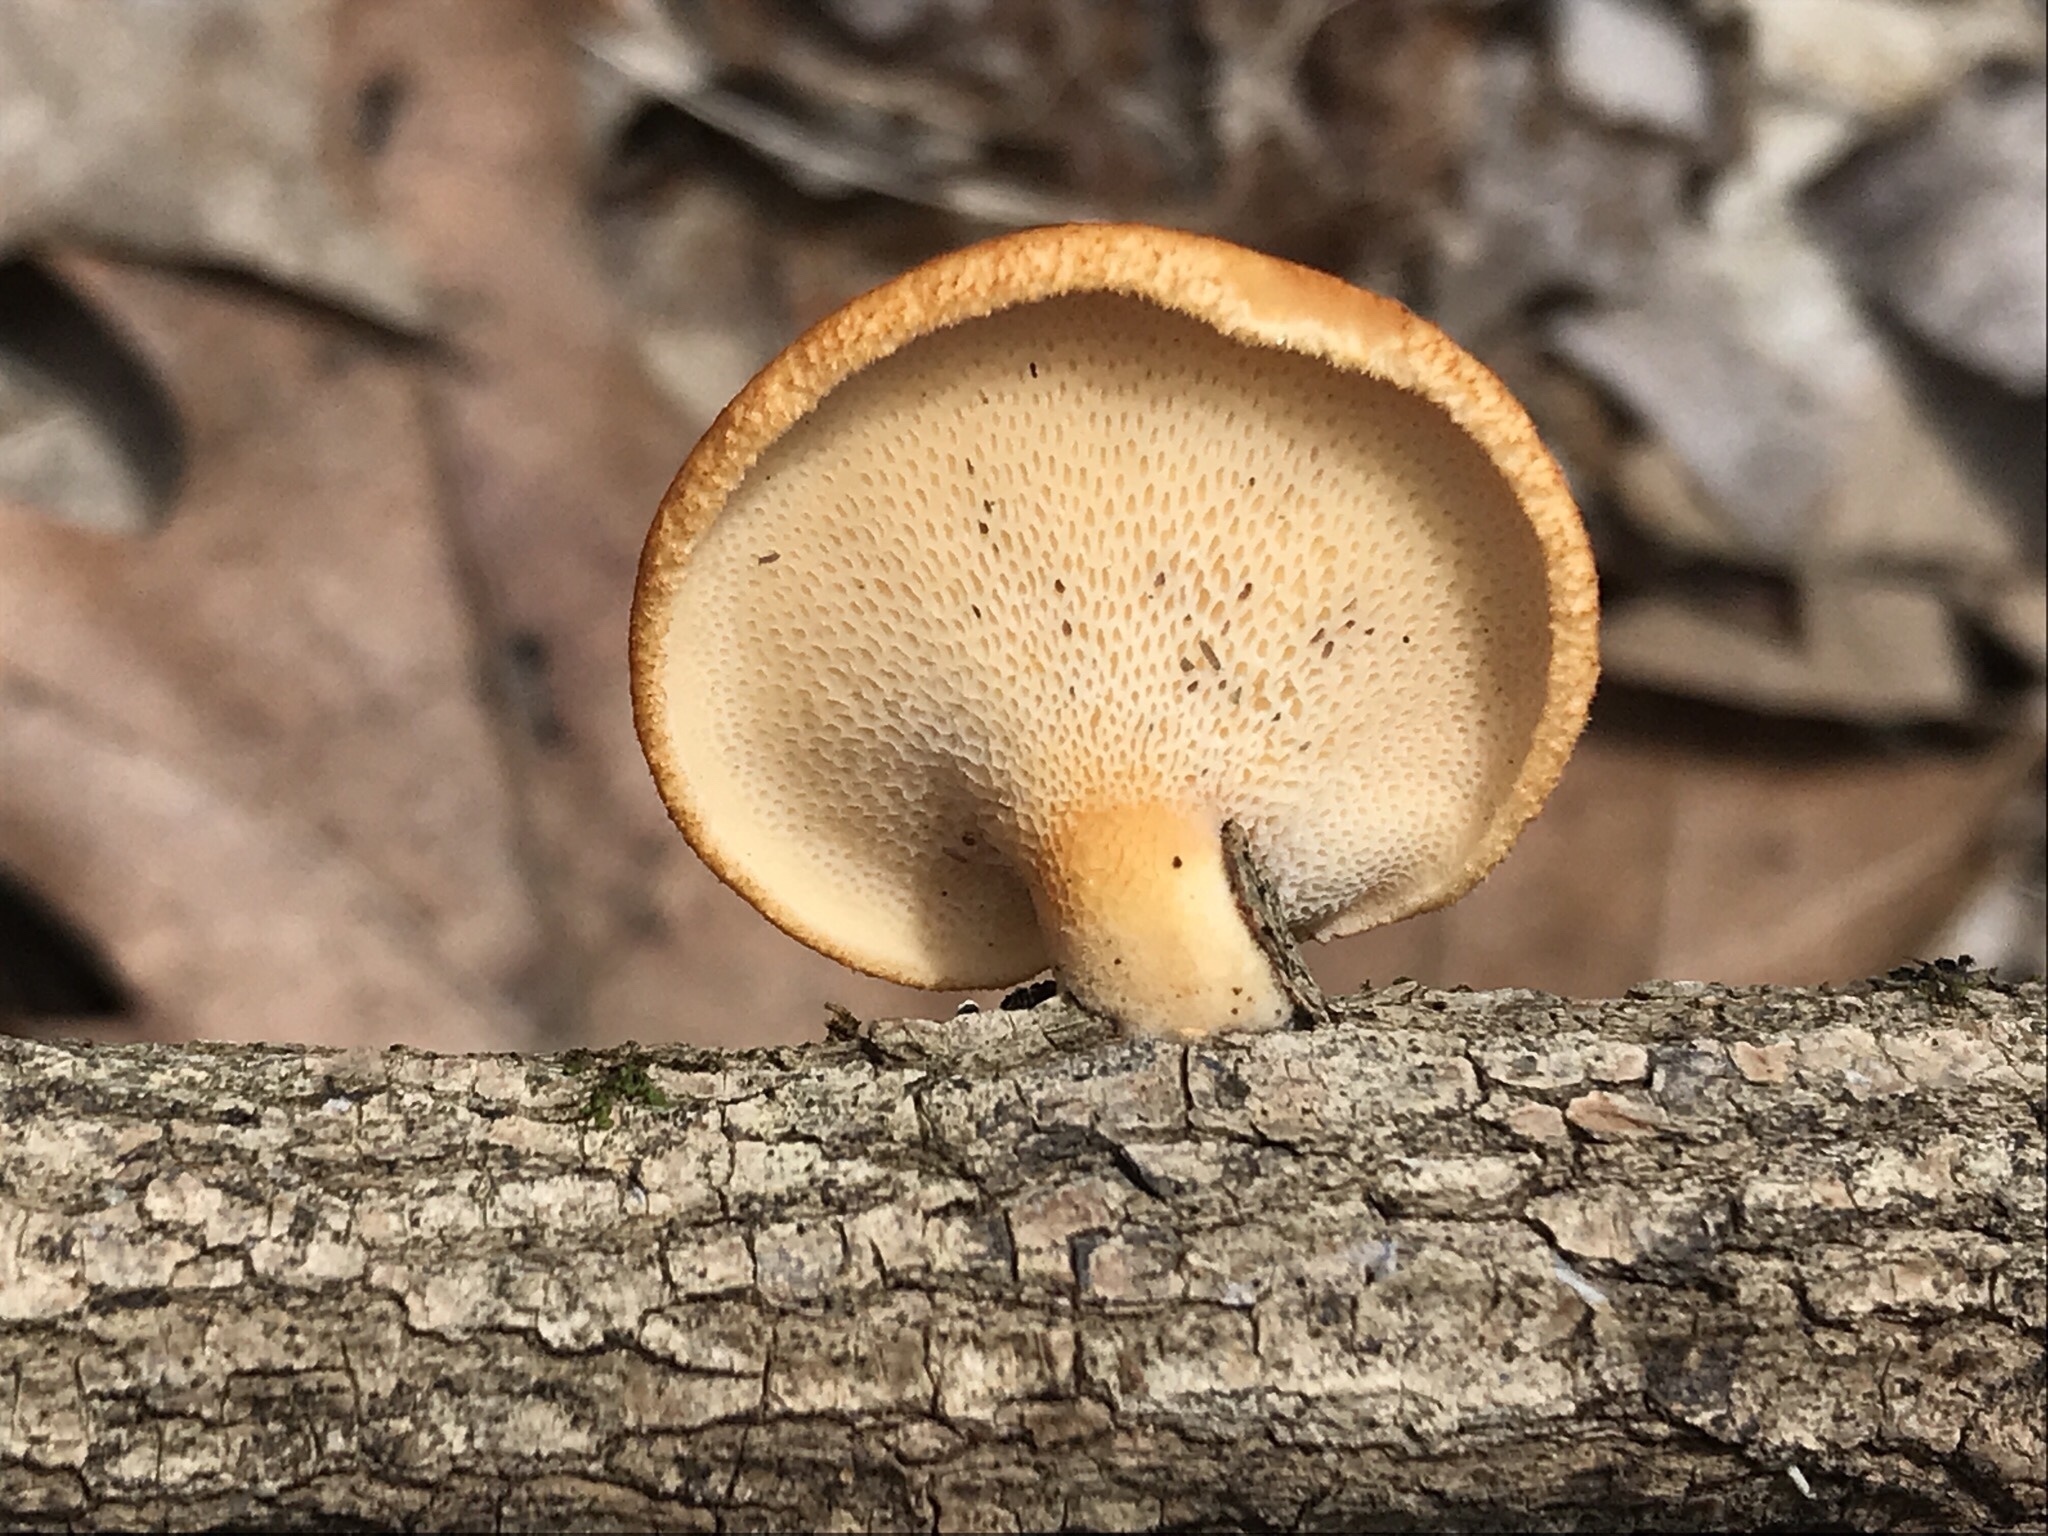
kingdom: Fungi
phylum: Basidiomycota
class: Agaricomycetes
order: Polyporales
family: Polyporaceae
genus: Neofavolus
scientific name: Neofavolus alveolaris
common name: Hexagonal-pored polypore
